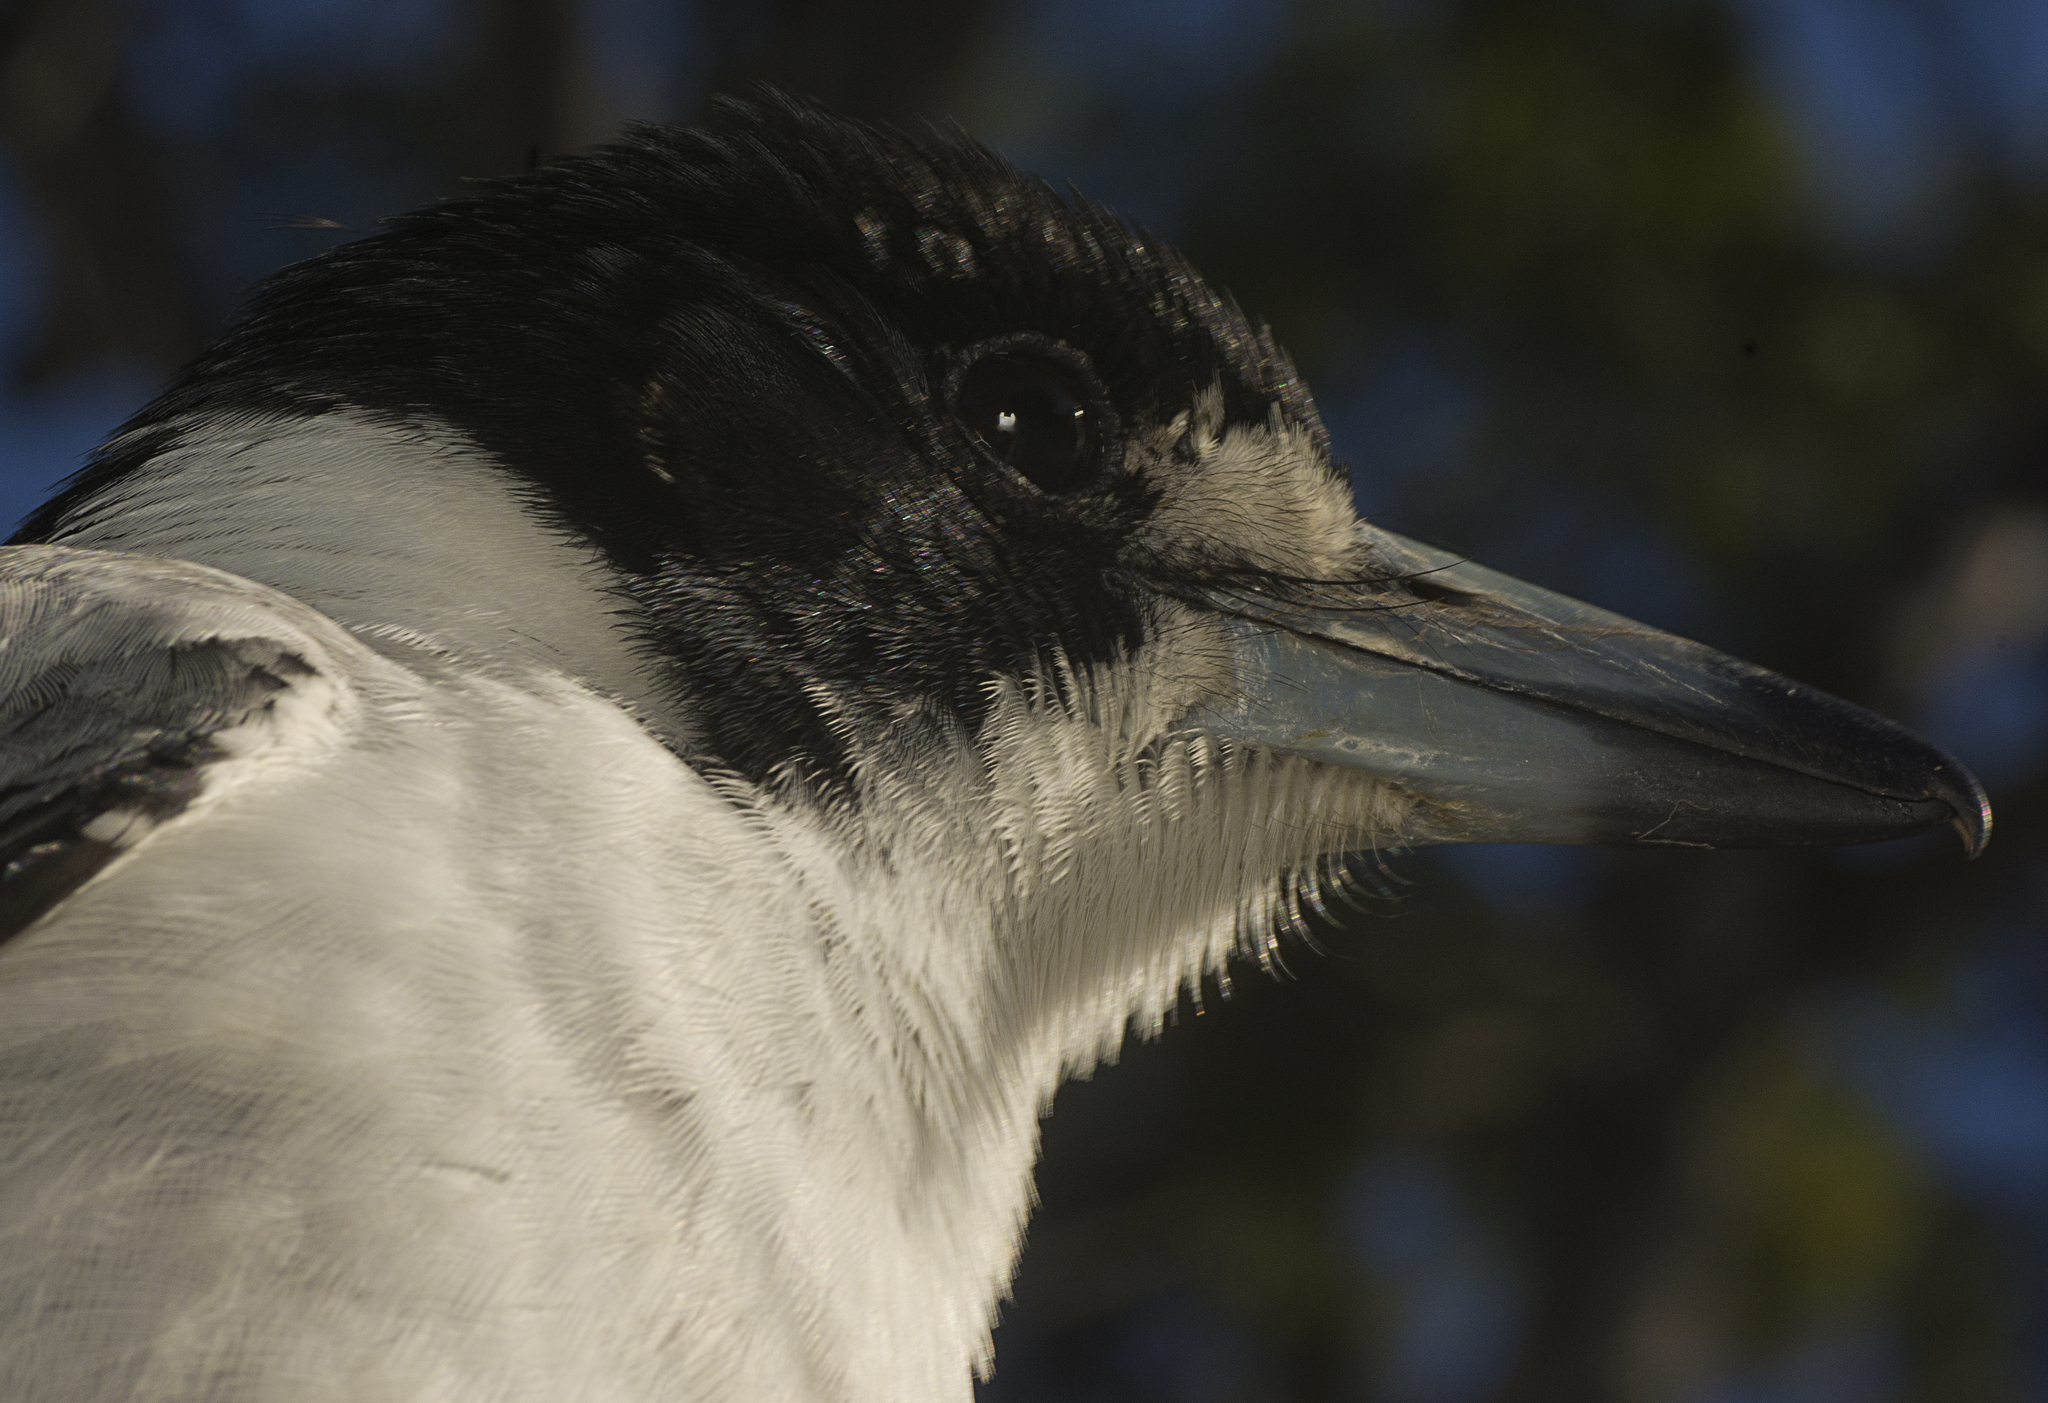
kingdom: Animalia
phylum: Chordata
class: Aves
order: Passeriformes
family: Cracticidae
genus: Cracticus
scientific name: Cracticus torquatus
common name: Grey butcherbird
